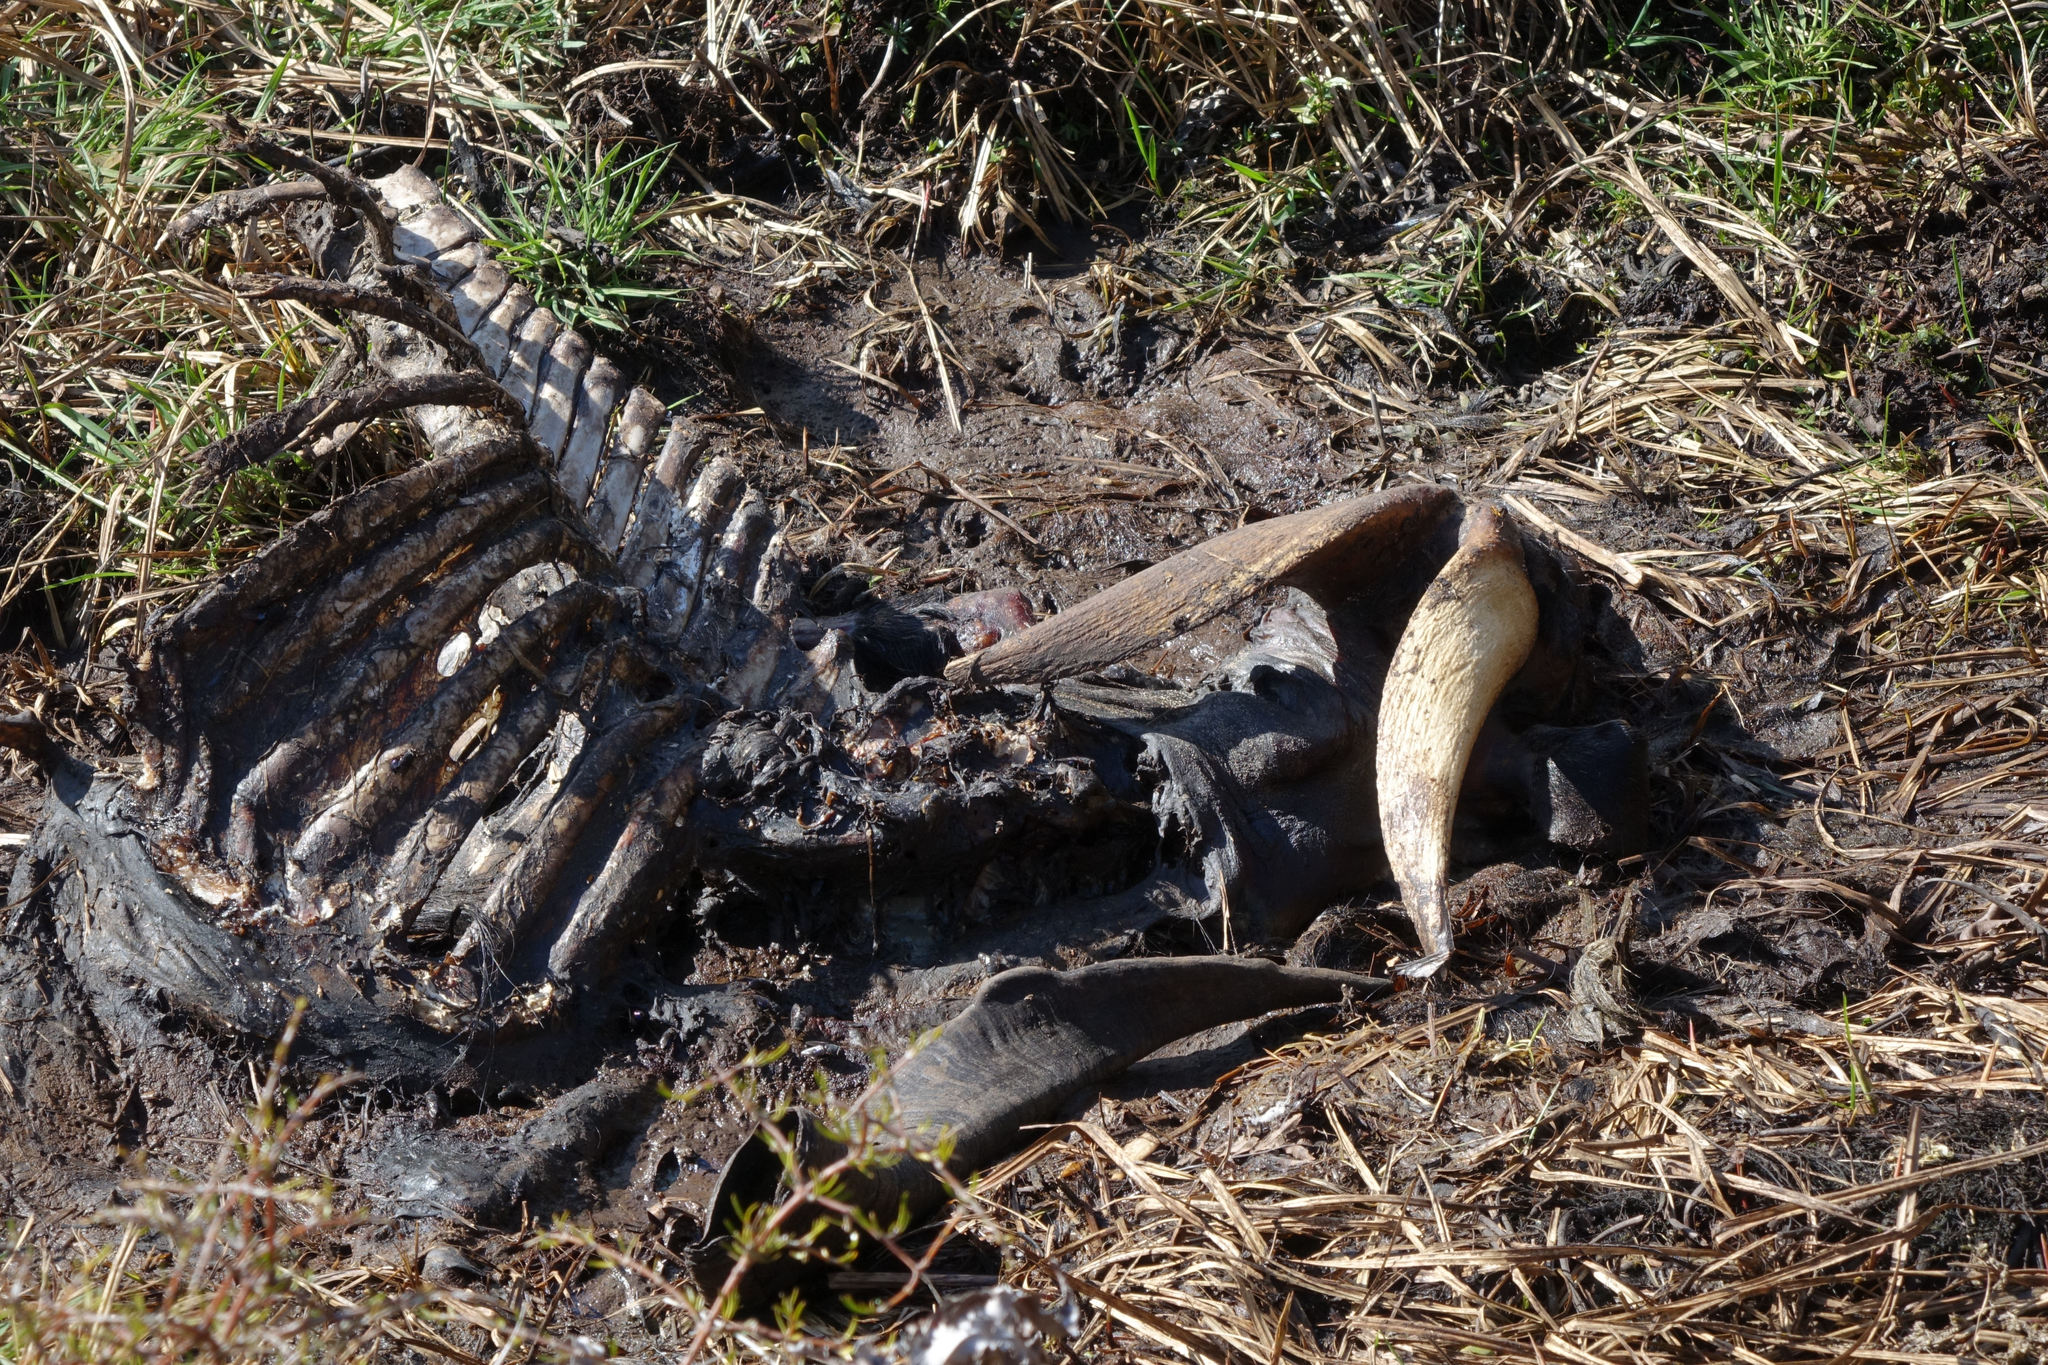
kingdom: Animalia
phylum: Chordata
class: Mammalia
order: Artiodactyla
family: Bovidae
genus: Capra
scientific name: Capra hircus
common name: Domestic goat
